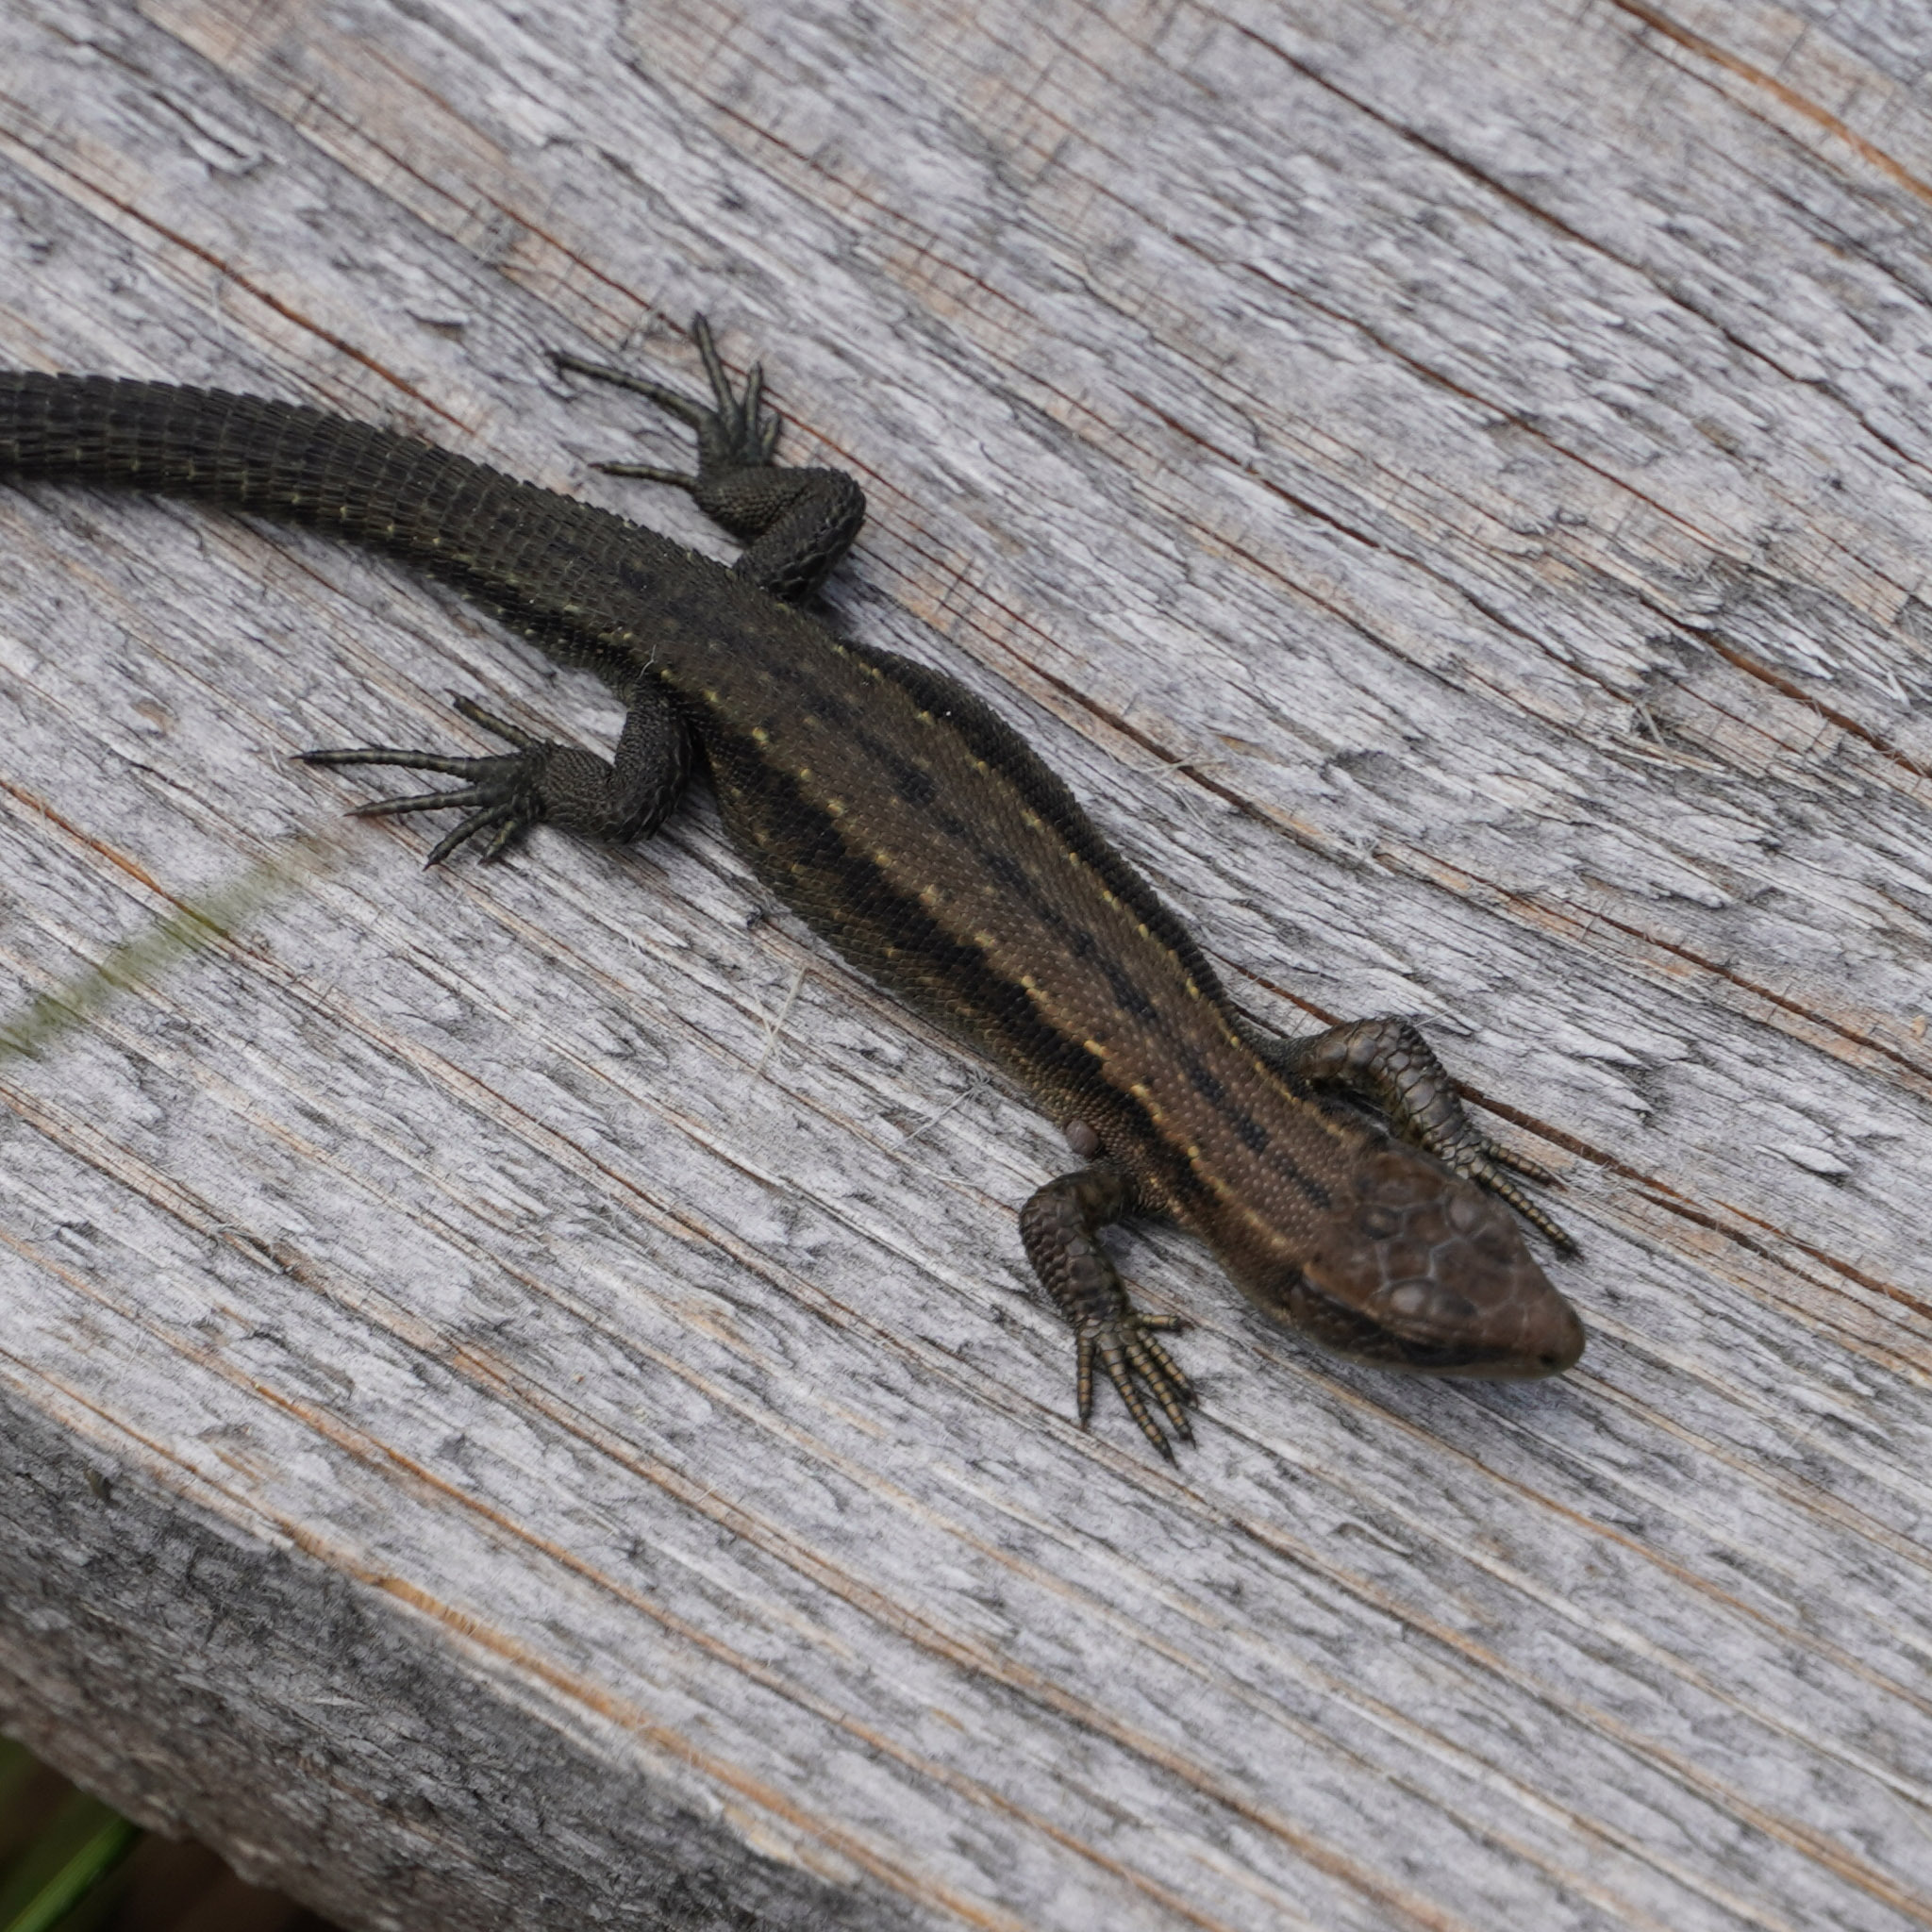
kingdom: Animalia
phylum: Chordata
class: Squamata
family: Lacertidae
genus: Zootoca
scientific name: Zootoca vivipara
